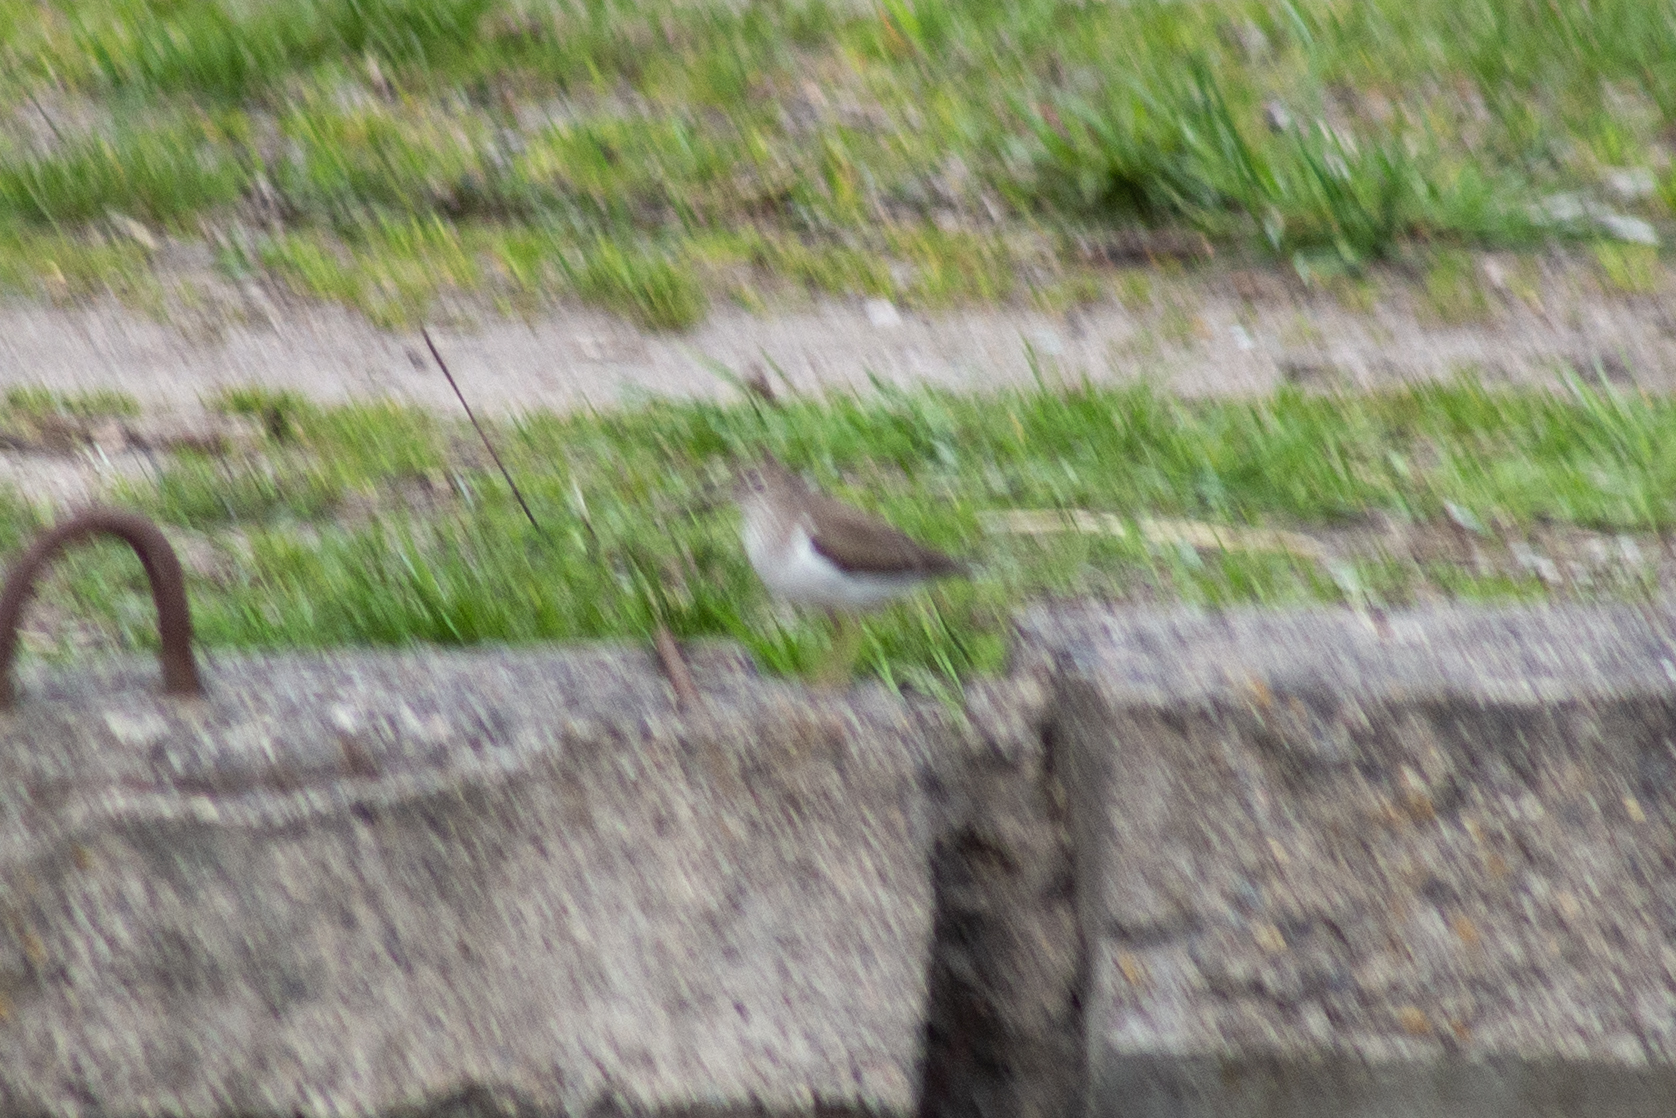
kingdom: Animalia
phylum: Chordata
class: Aves
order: Charadriiformes
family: Scolopacidae
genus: Actitis
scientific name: Actitis hypoleucos
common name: Common sandpiper
